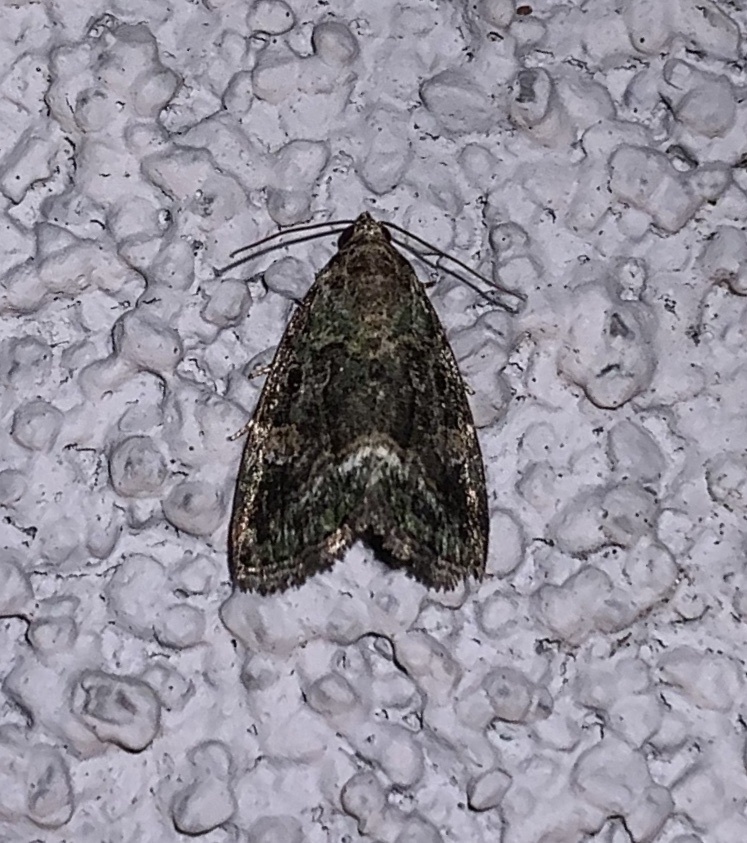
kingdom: Animalia
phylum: Arthropoda
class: Insecta
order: Lepidoptera
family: Noctuidae
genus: Lithacodia
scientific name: Lithacodia musta
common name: Small mossy glyph
